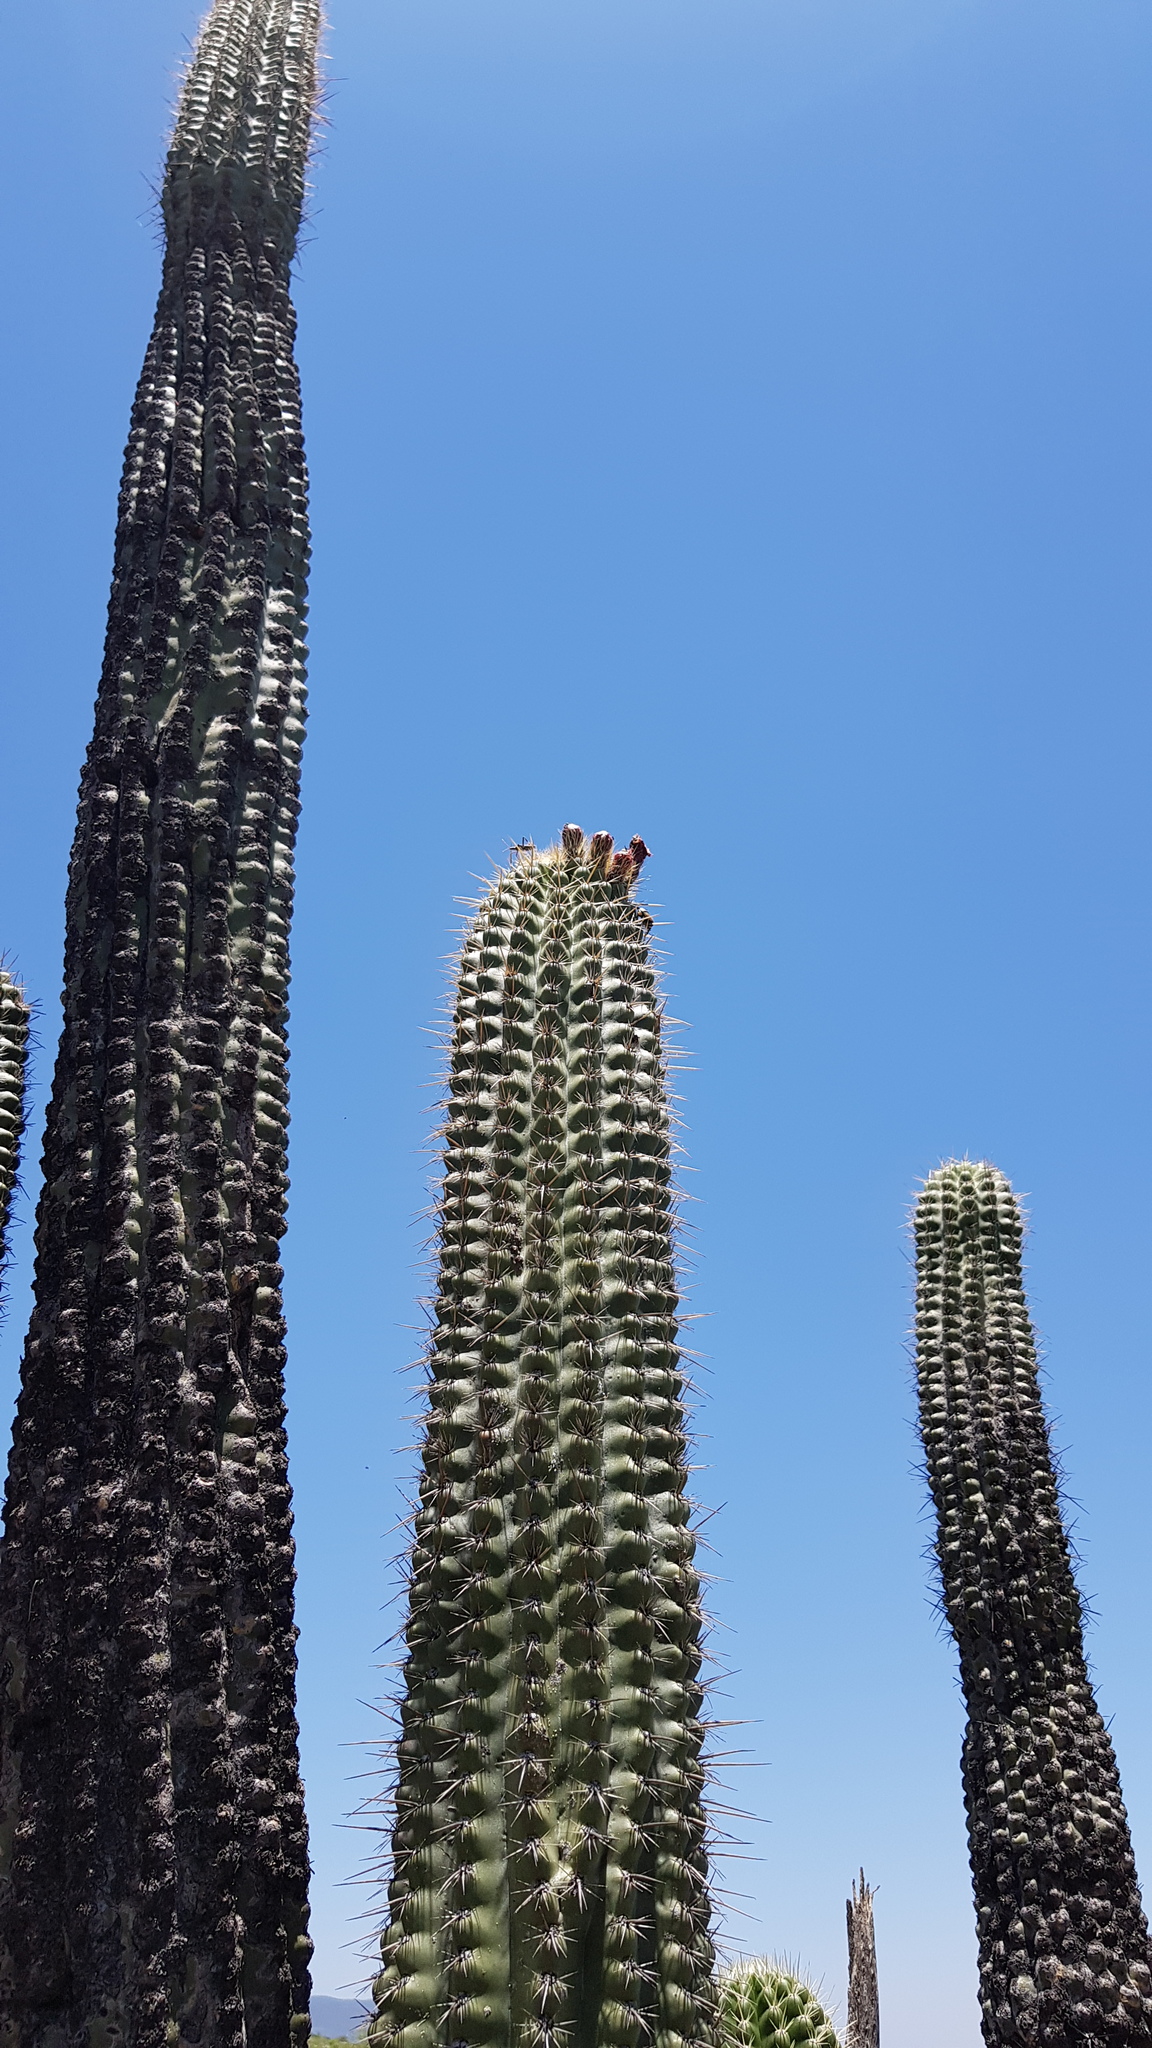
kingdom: Plantae
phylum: Tracheophyta
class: Magnoliopsida
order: Caryophyllales
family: Cactaceae
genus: Stenocereus
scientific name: Stenocereus treleasei
